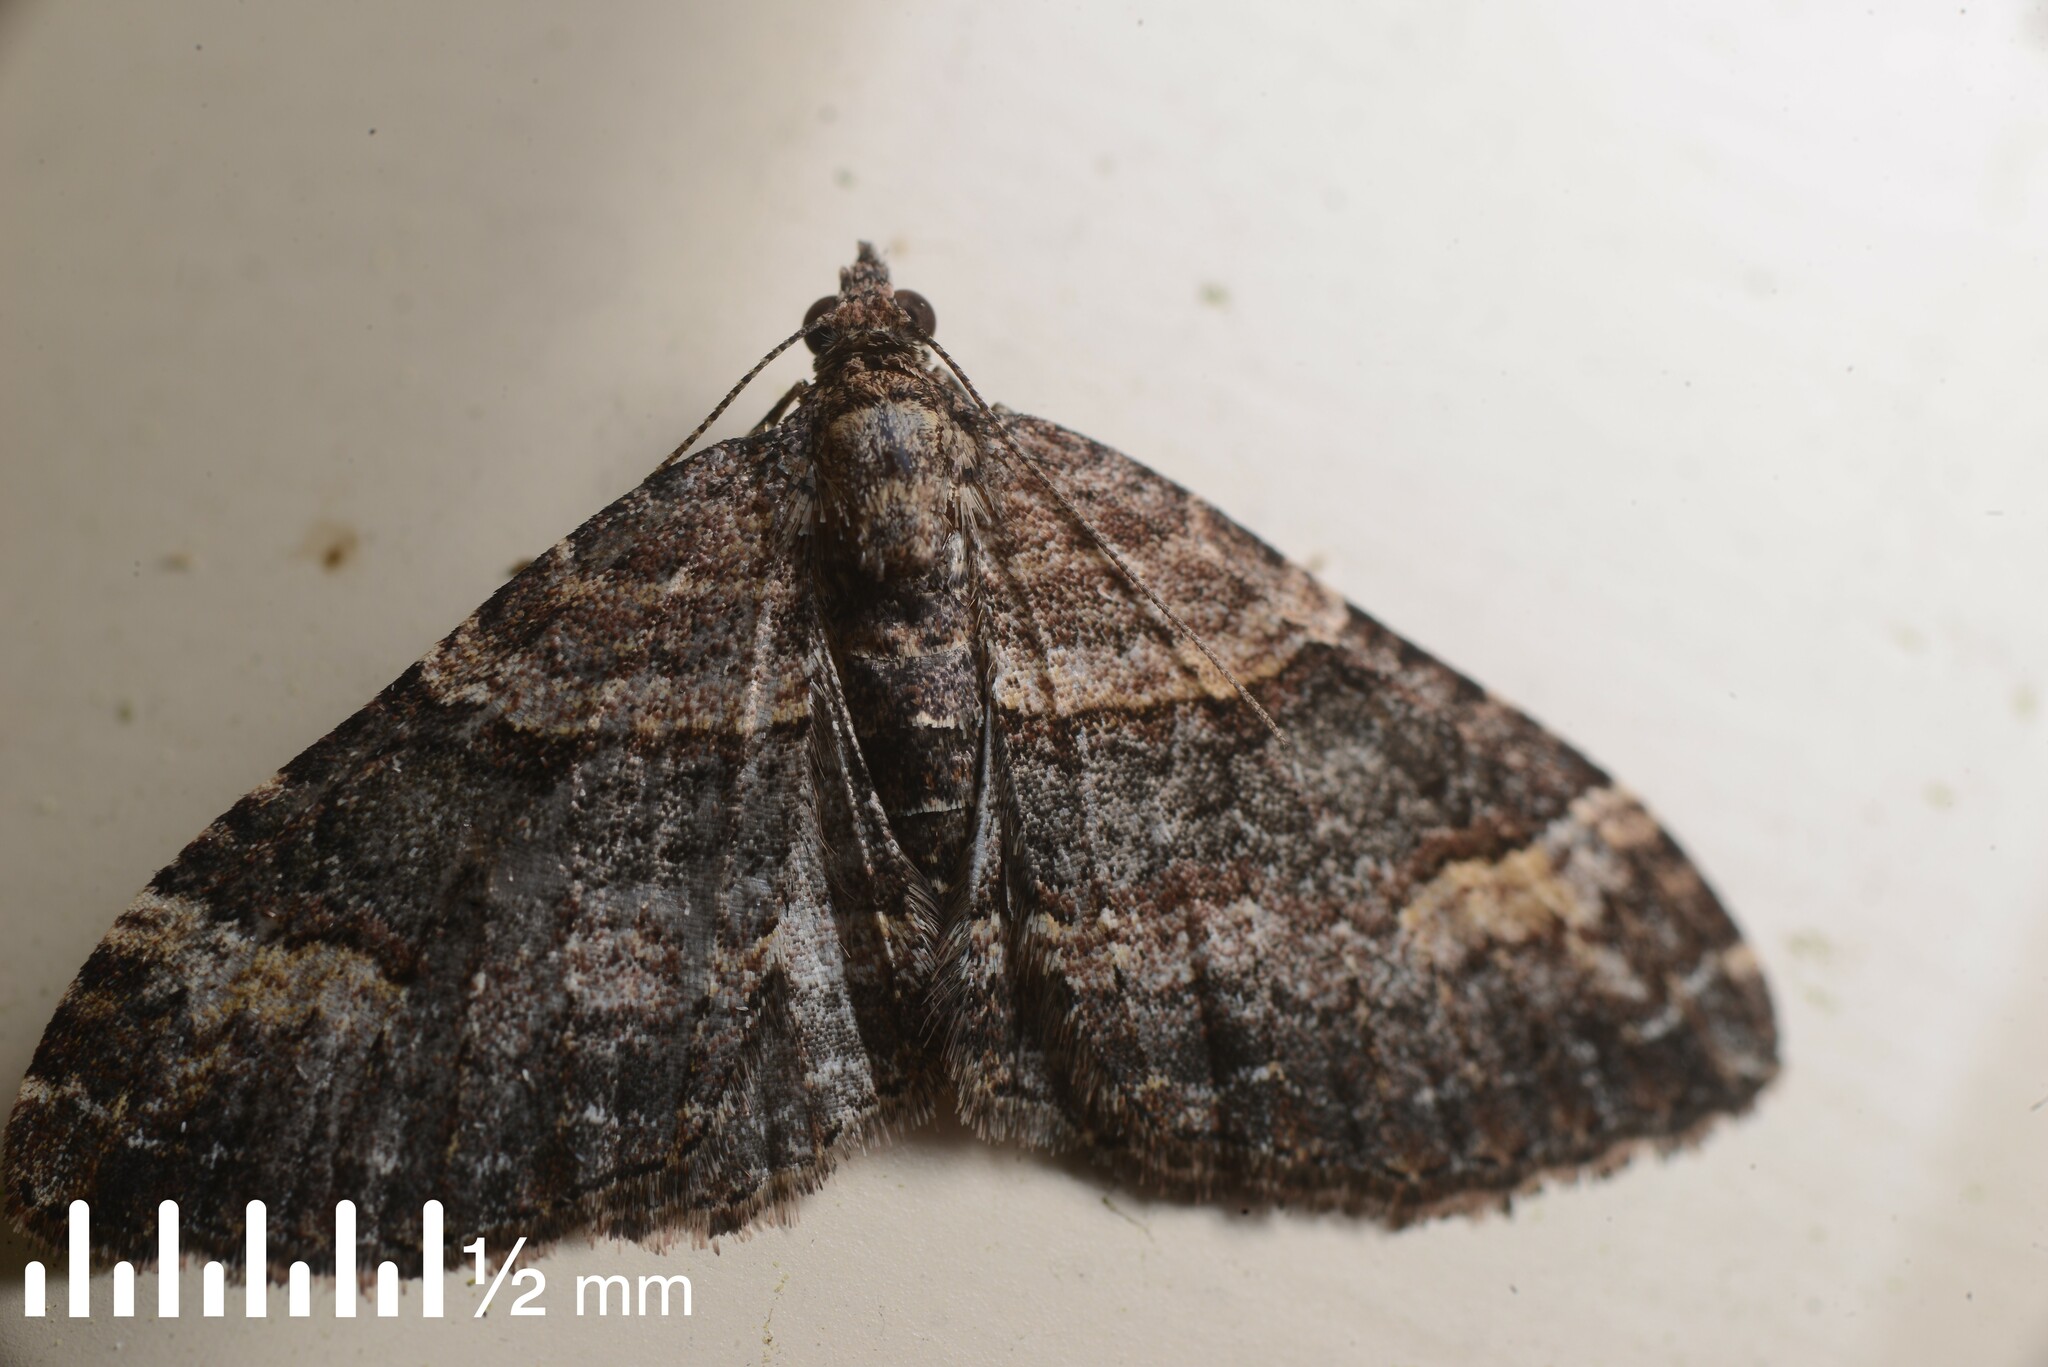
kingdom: Animalia
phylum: Arthropoda
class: Insecta
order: Lepidoptera
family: Geometridae
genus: Epyaxa
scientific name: Epyaxa lucidata
